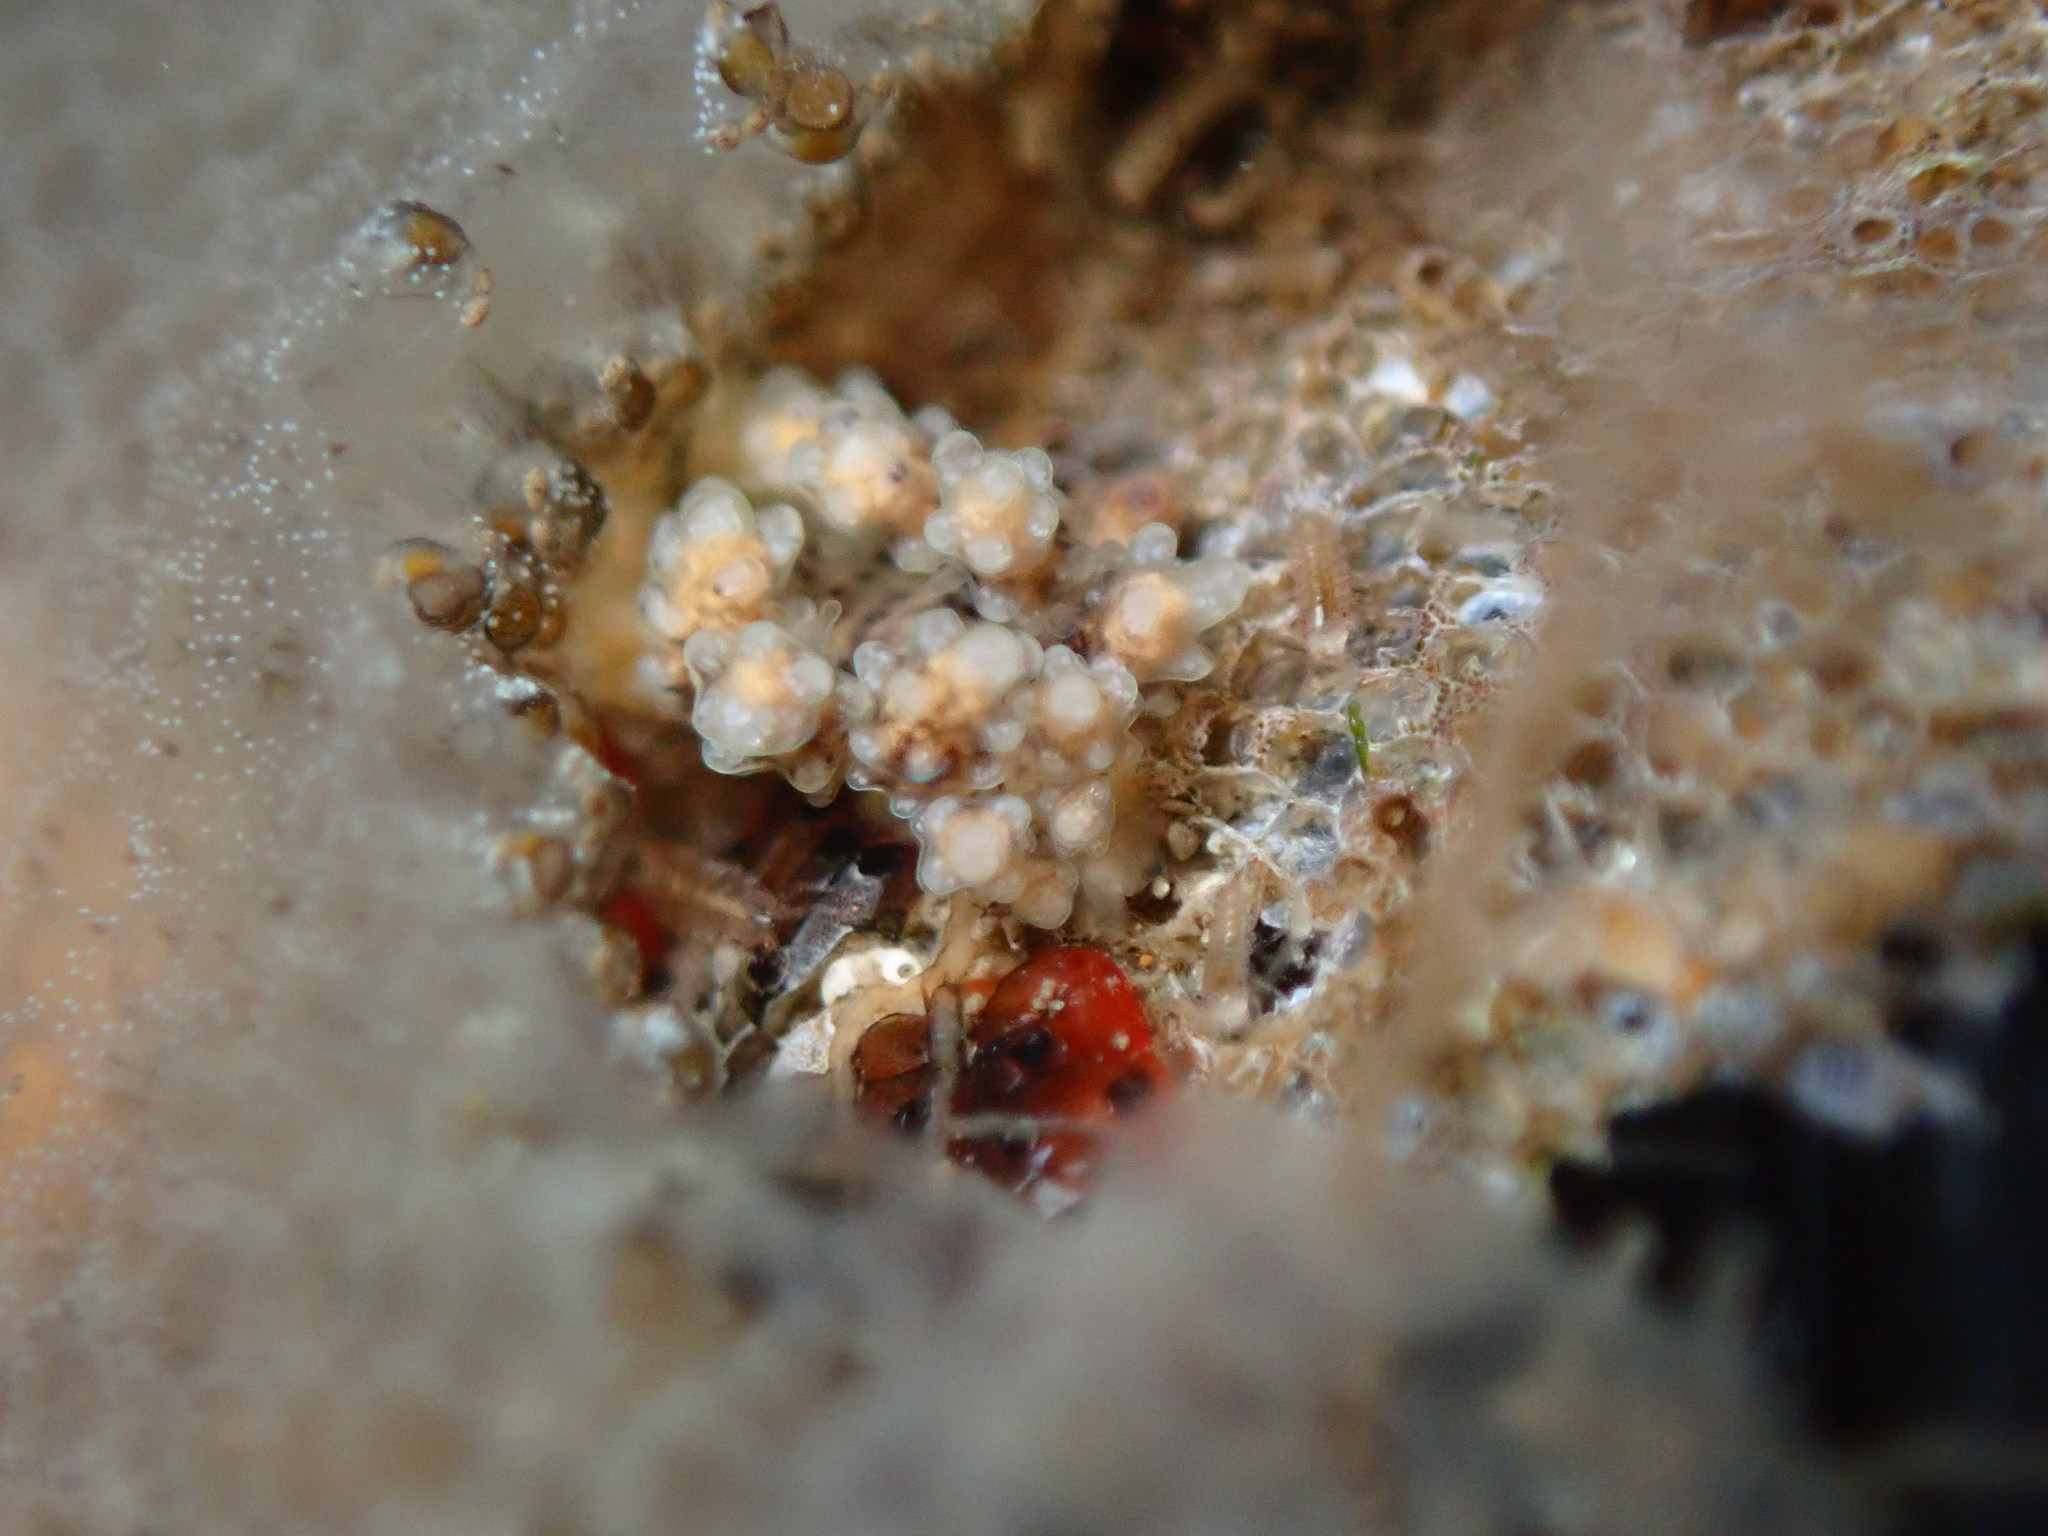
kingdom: Animalia
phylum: Mollusca
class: Gastropoda
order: Nudibranchia
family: Dotidae
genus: Doto
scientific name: Doto kya
